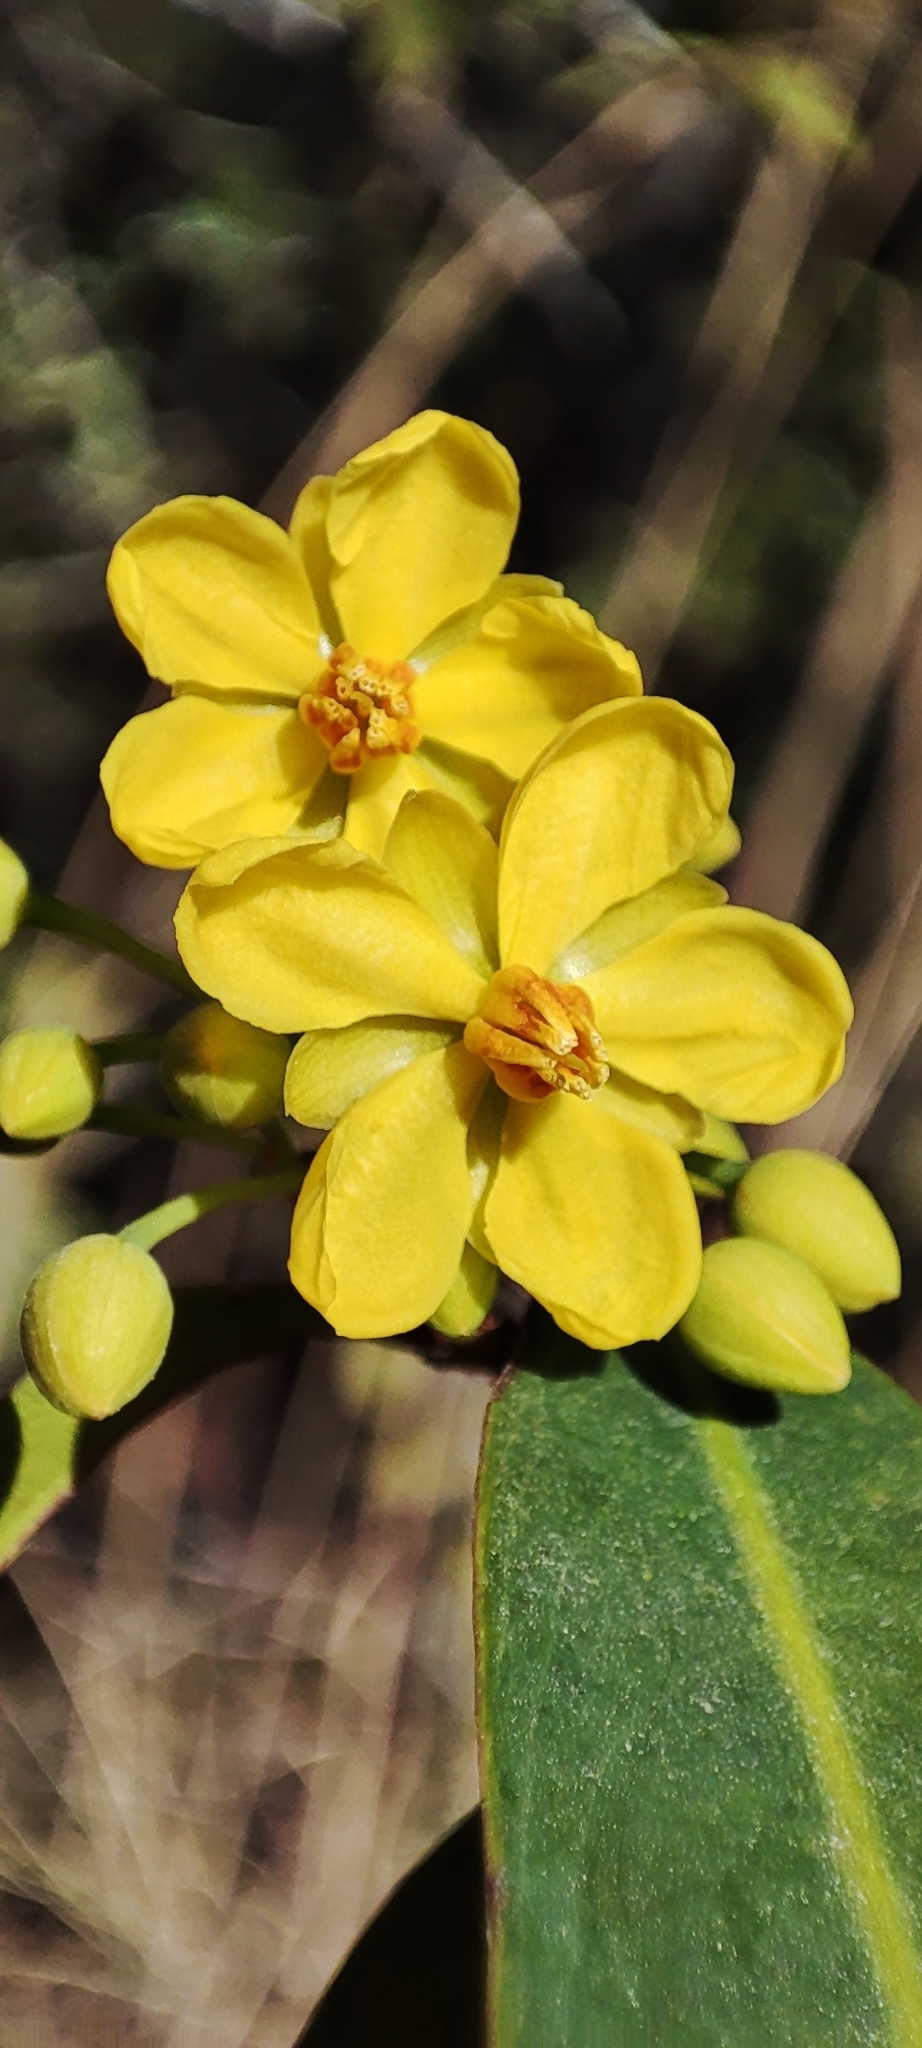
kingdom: Plantae
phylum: Tracheophyta
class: Magnoliopsida
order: Malpighiales
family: Ochnaceae
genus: Ouratea
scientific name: Ouratea jaliscensis
